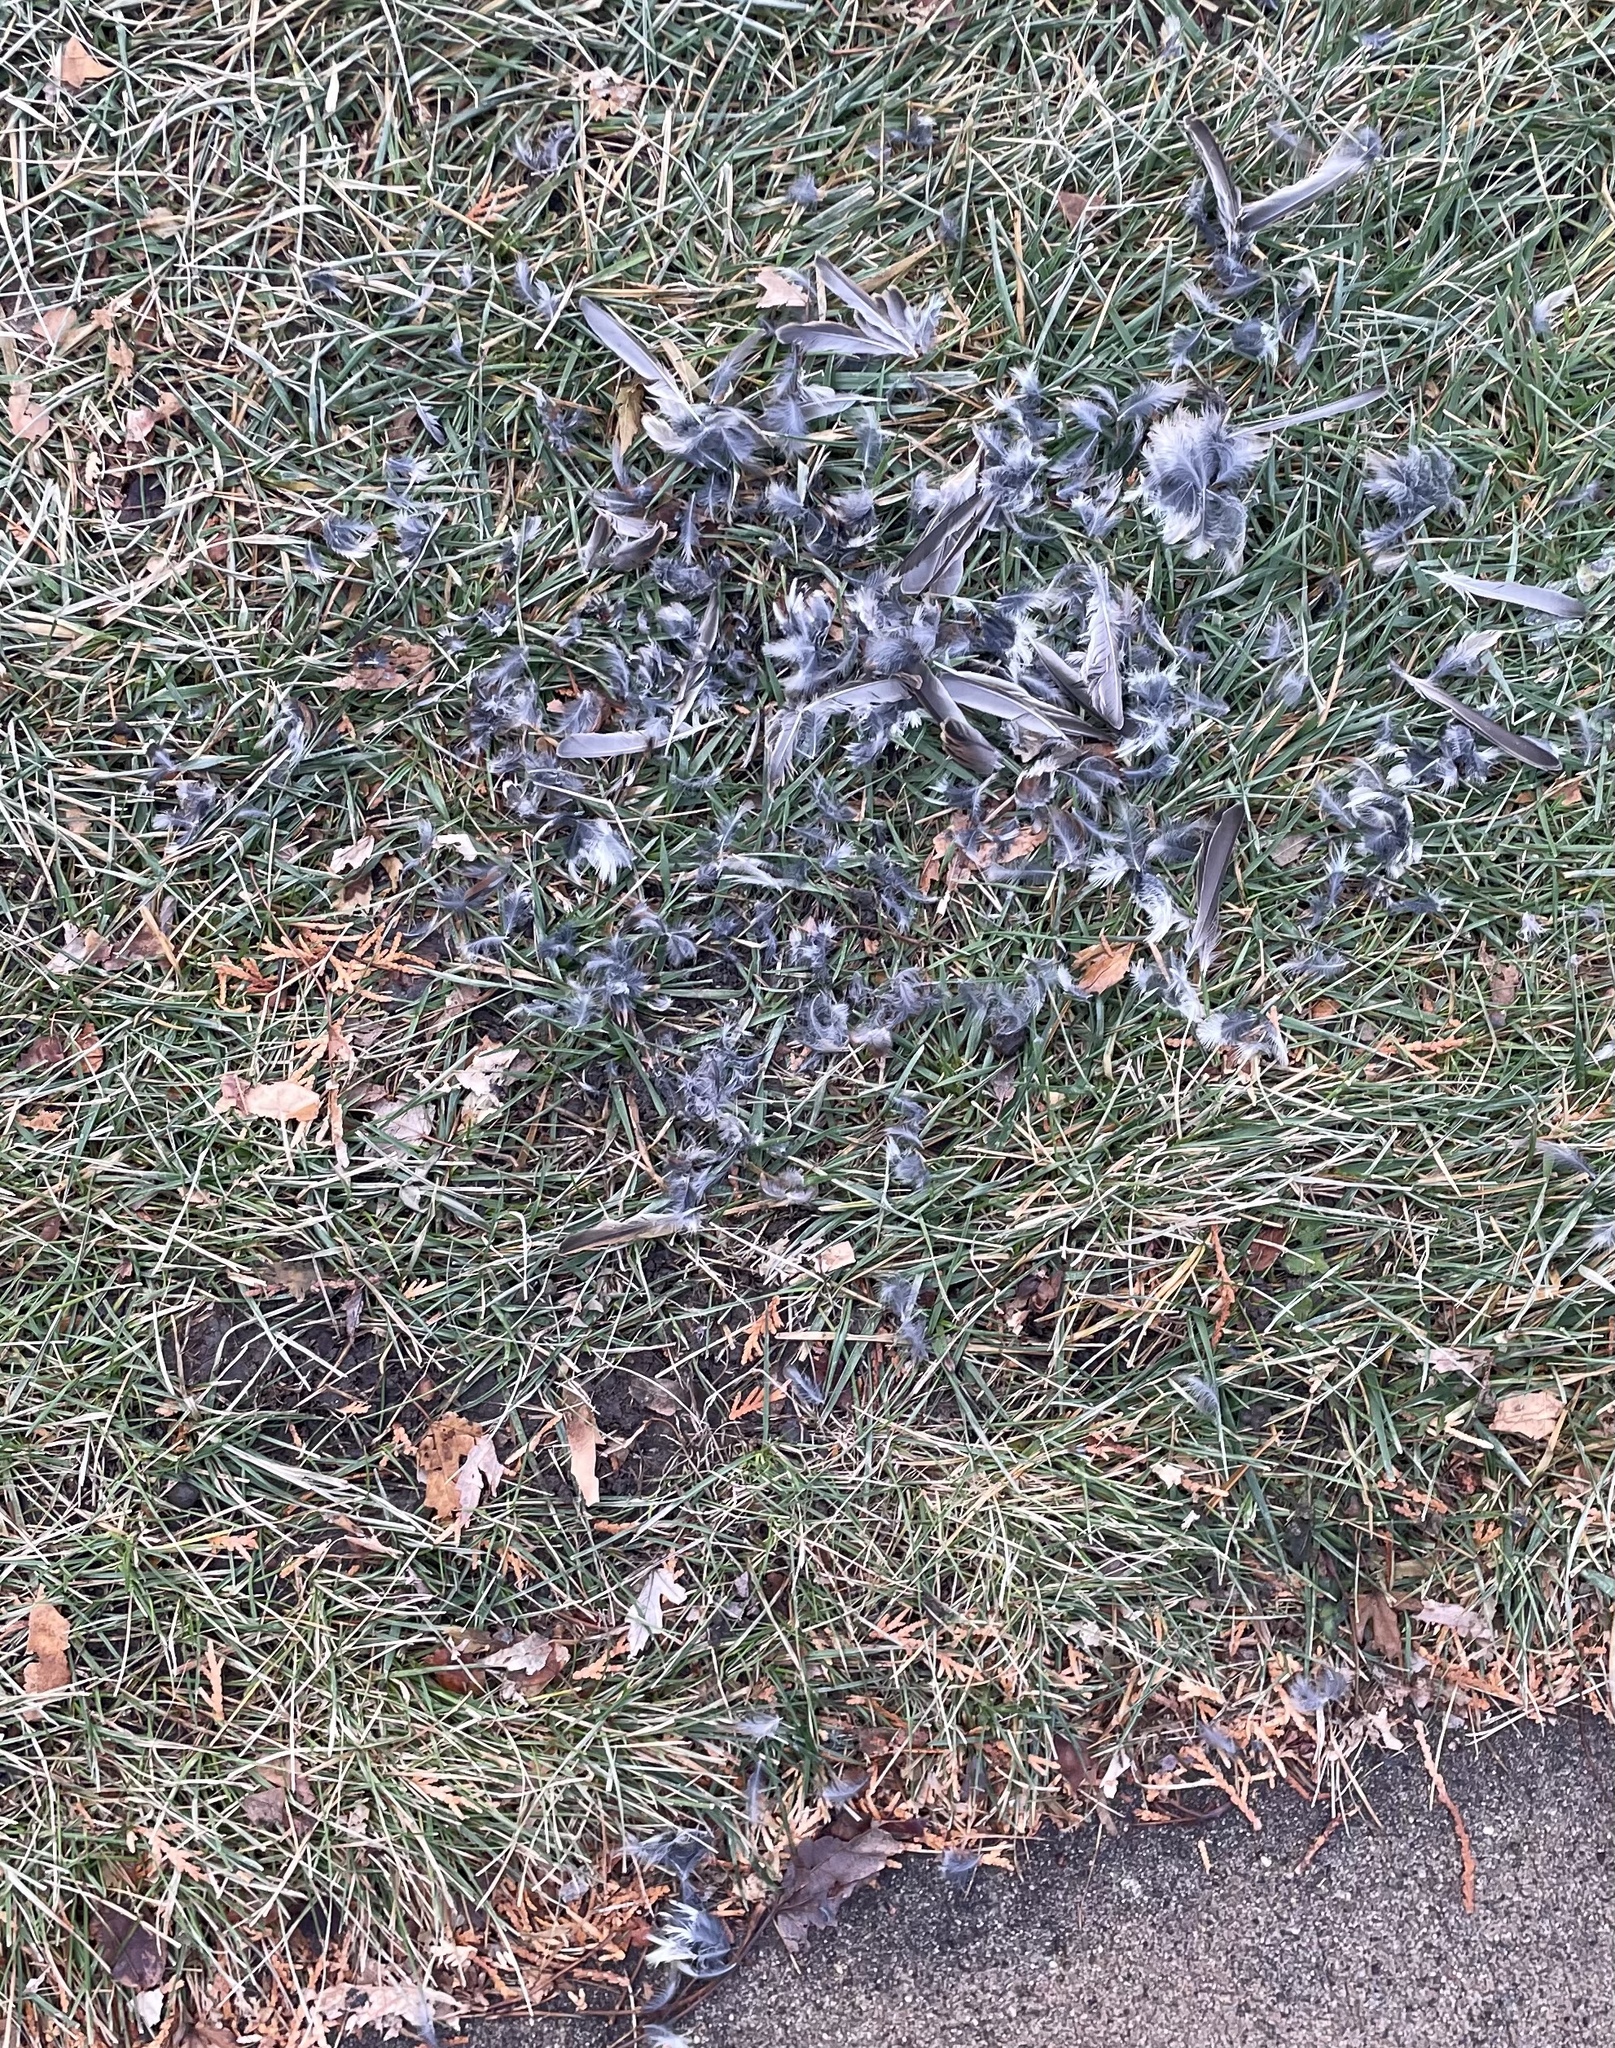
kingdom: Animalia
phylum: Chordata
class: Aves
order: Passeriformes
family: Passeridae
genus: Passer
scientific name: Passer domesticus
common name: House sparrow
